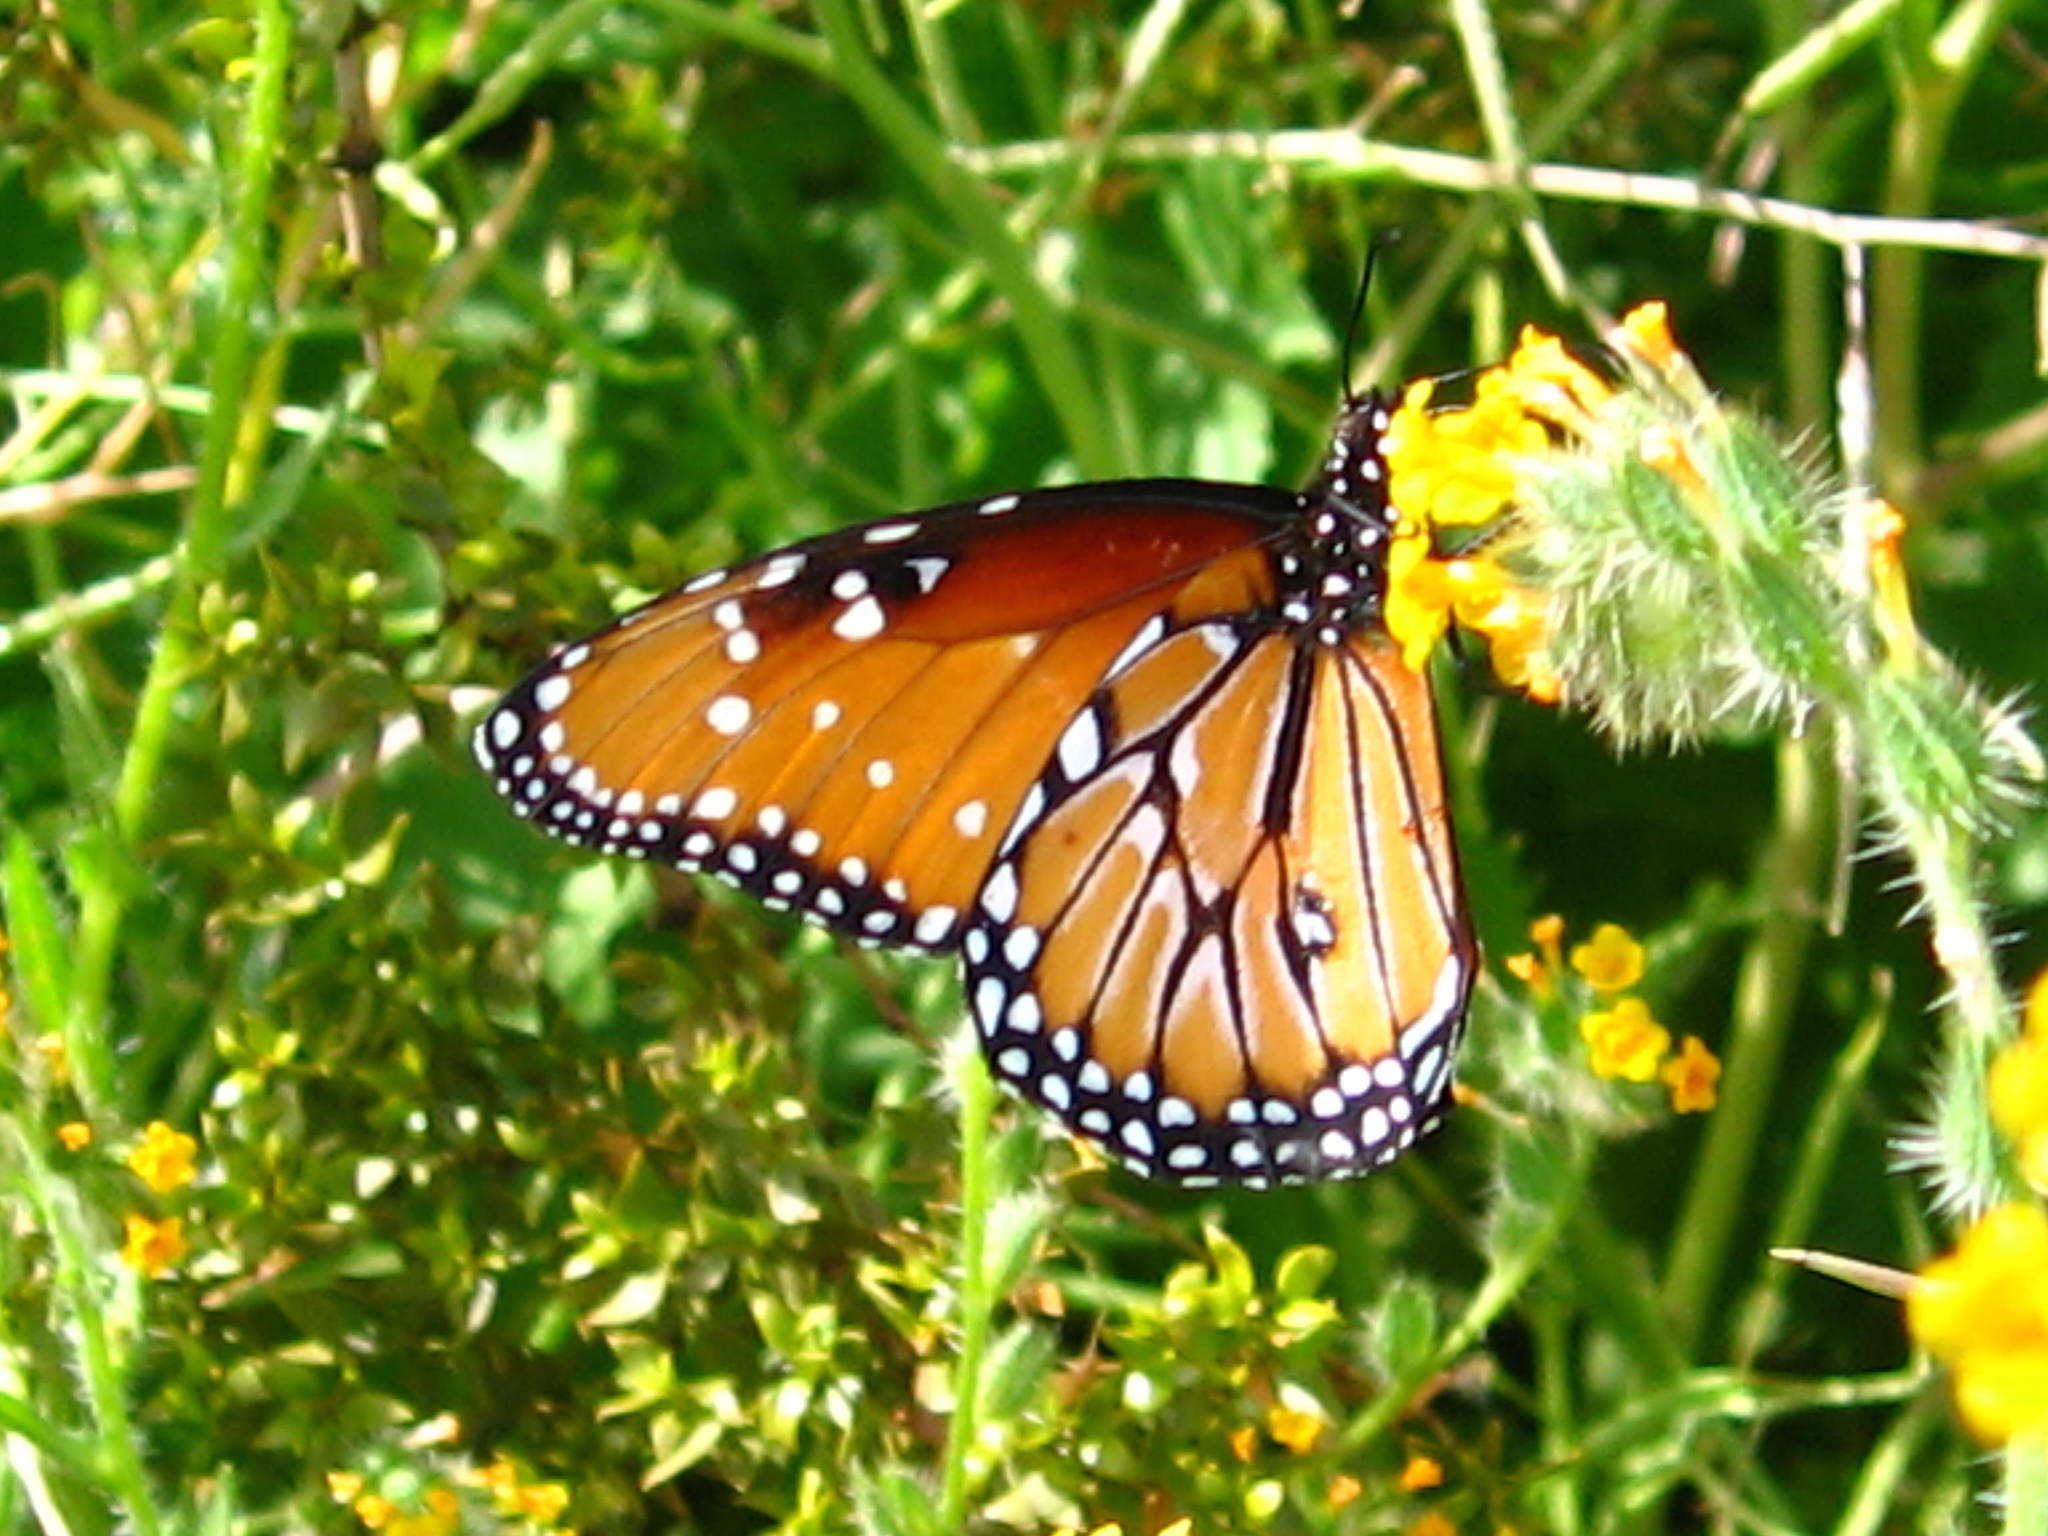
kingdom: Animalia
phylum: Arthropoda
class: Insecta
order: Lepidoptera
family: Nymphalidae
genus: Danaus
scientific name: Danaus gilippus
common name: Queen
